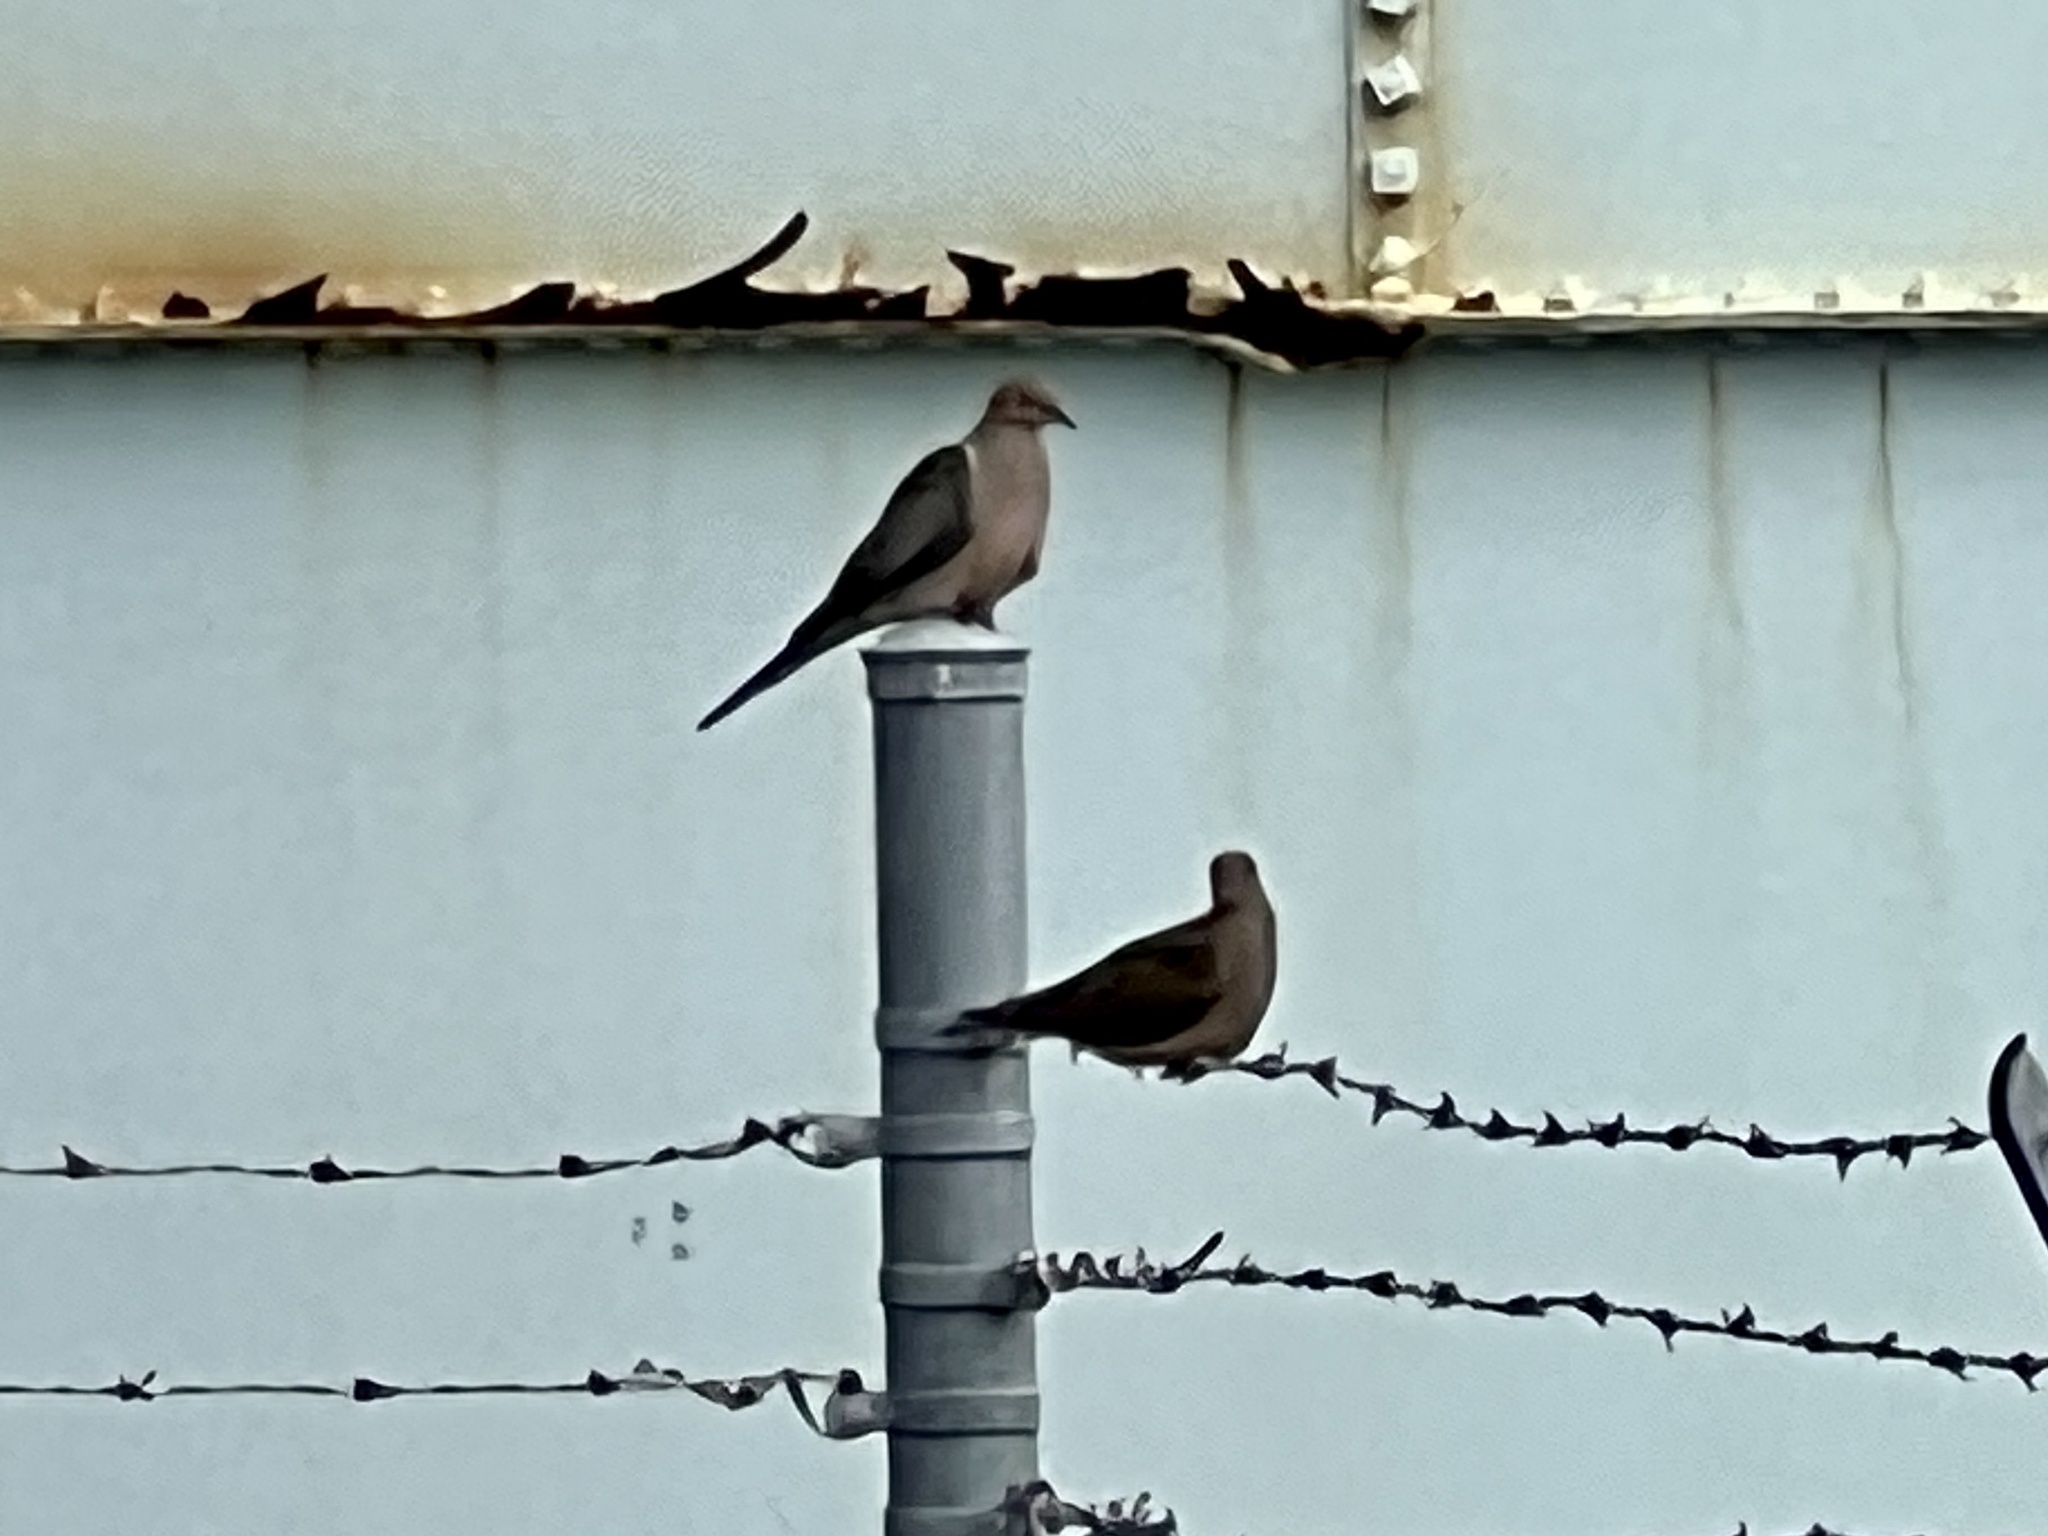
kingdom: Animalia
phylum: Chordata
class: Aves
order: Columbiformes
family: Columbidae
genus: Zenaida
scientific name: Zenaida macroura
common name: Mourning dove
